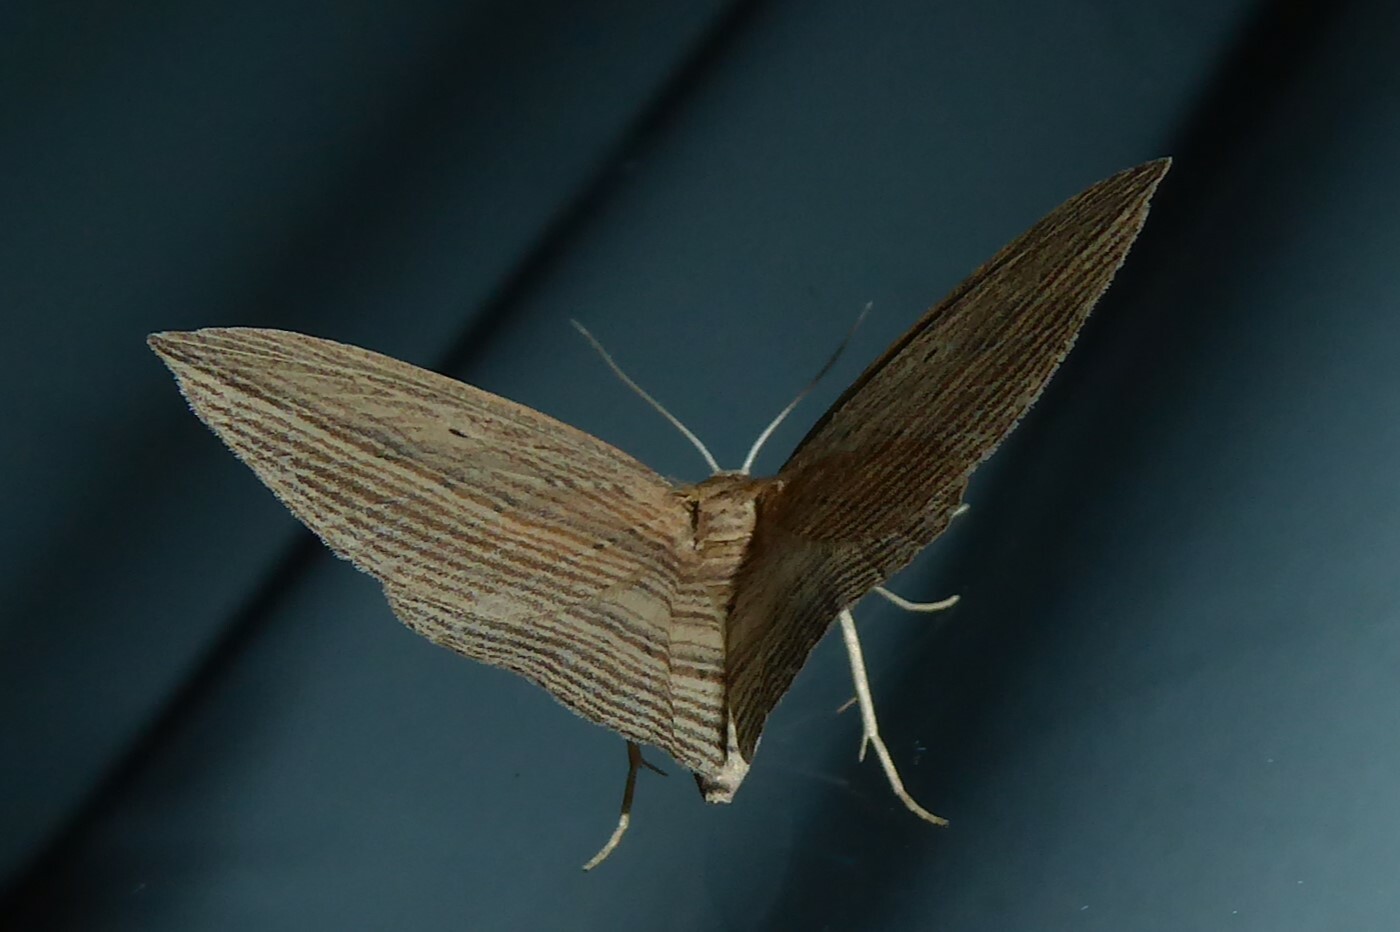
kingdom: Animalia
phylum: Arthropoda
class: Insecta
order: Lepidoptera
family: Geometridae
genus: Epiphryne
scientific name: Epiphryne verriculata
